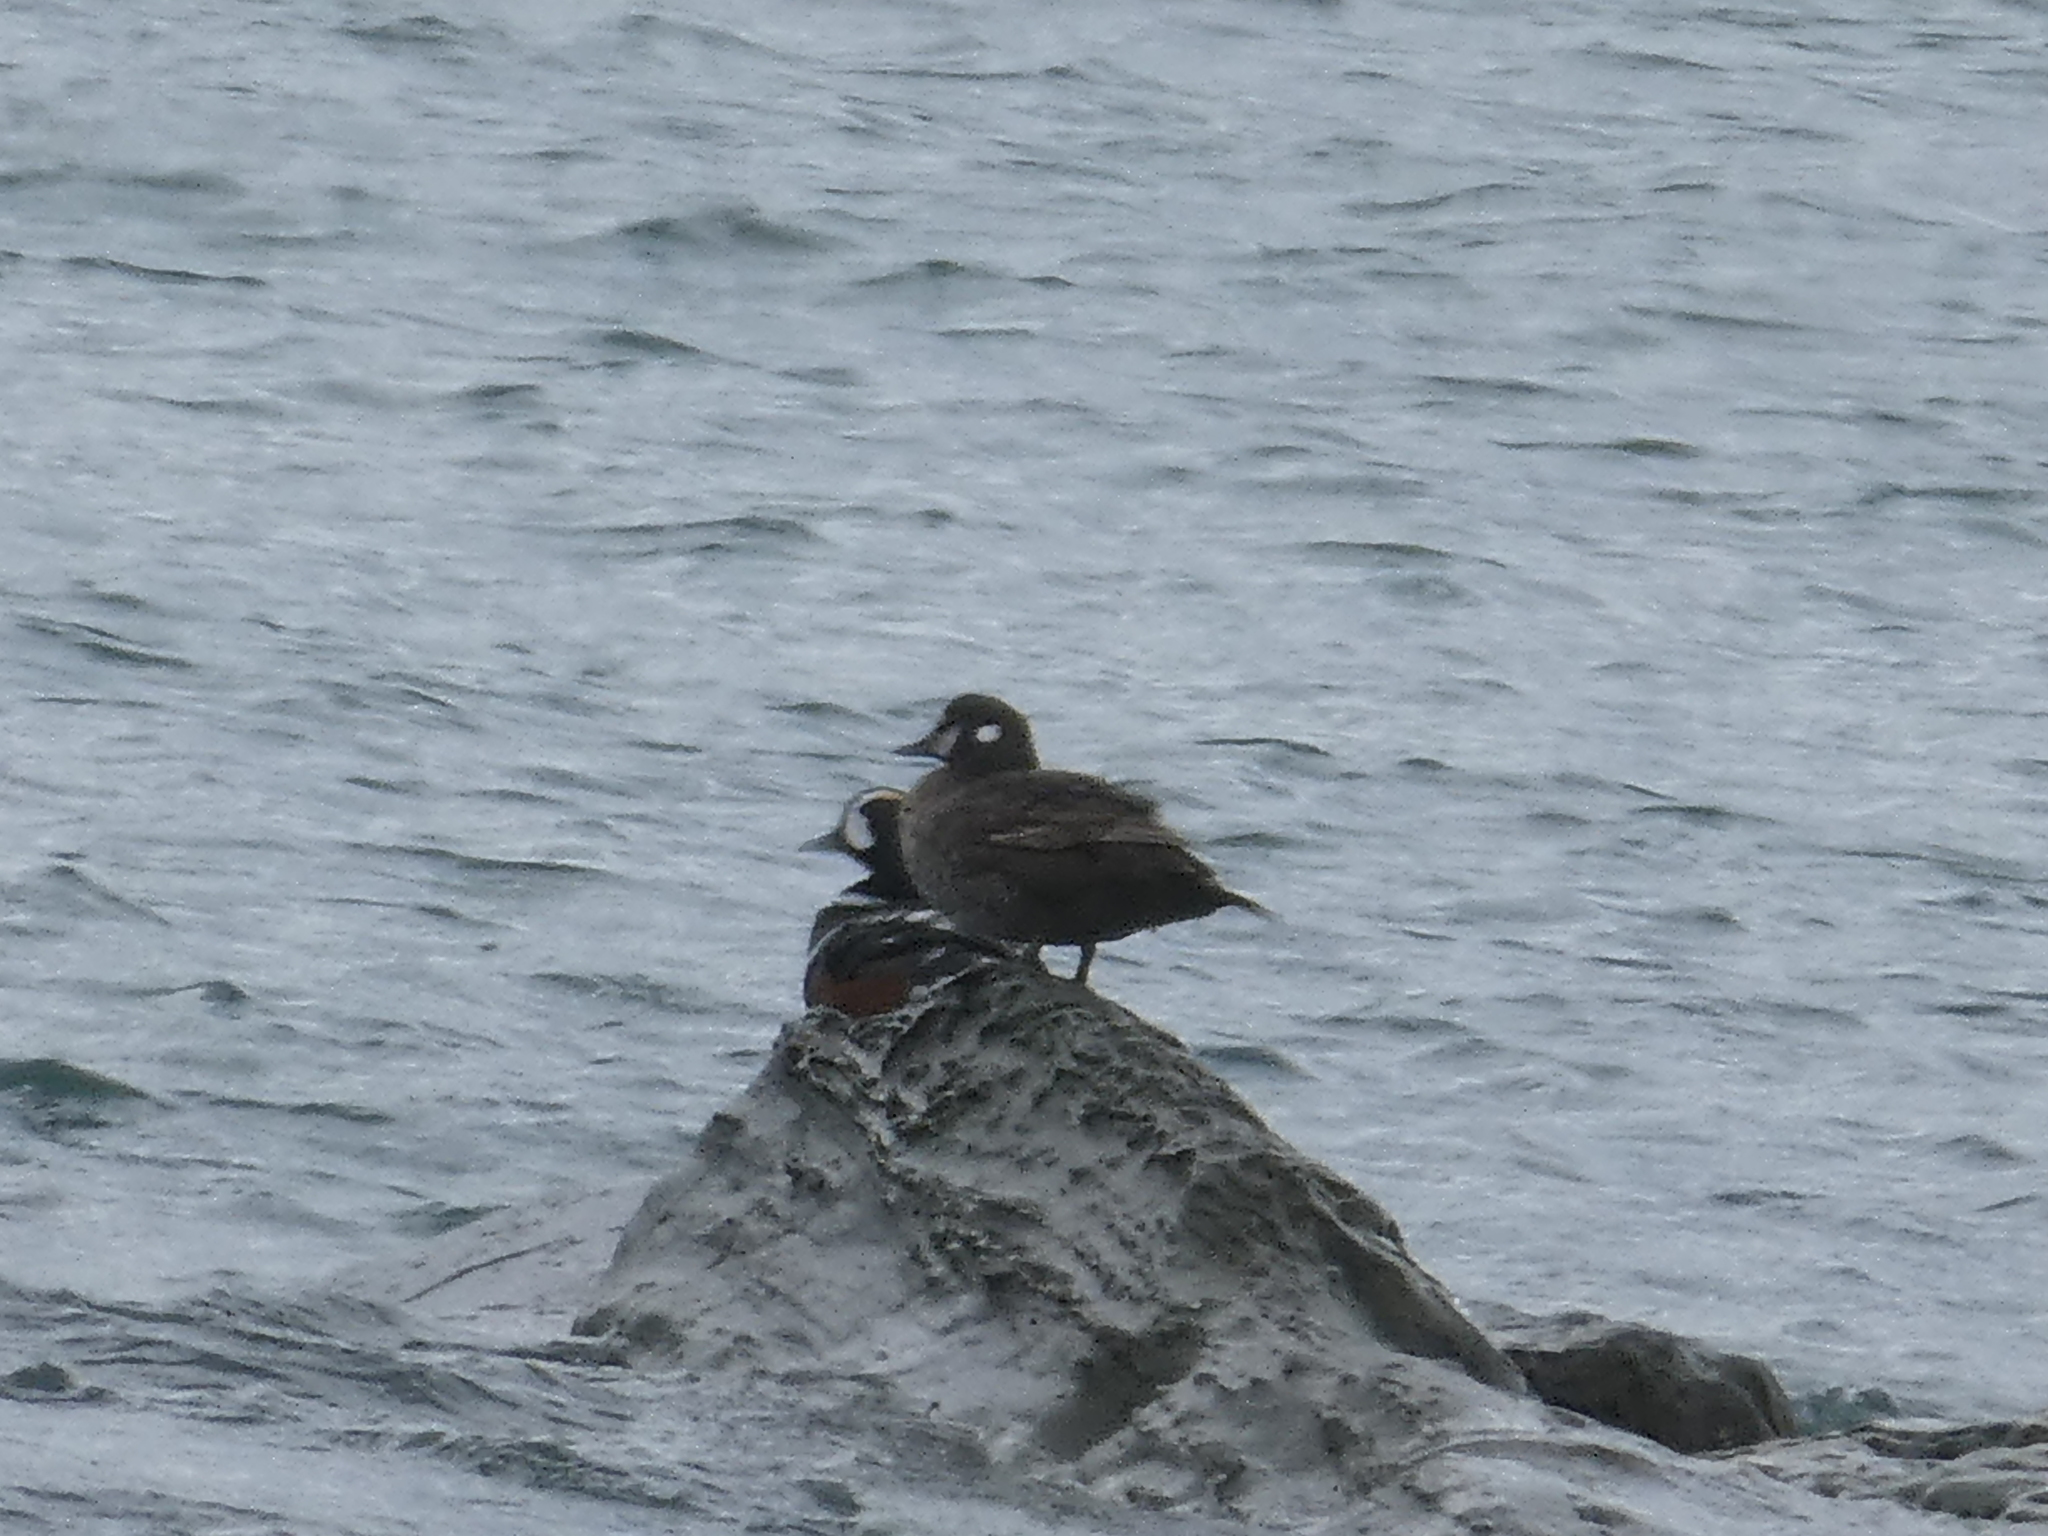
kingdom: Animalia
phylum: Chordata
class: Aves
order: Anseriformes
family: Anatidae
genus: Histrionicus
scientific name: Histrionicus histrionicus
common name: Harlequin duck
